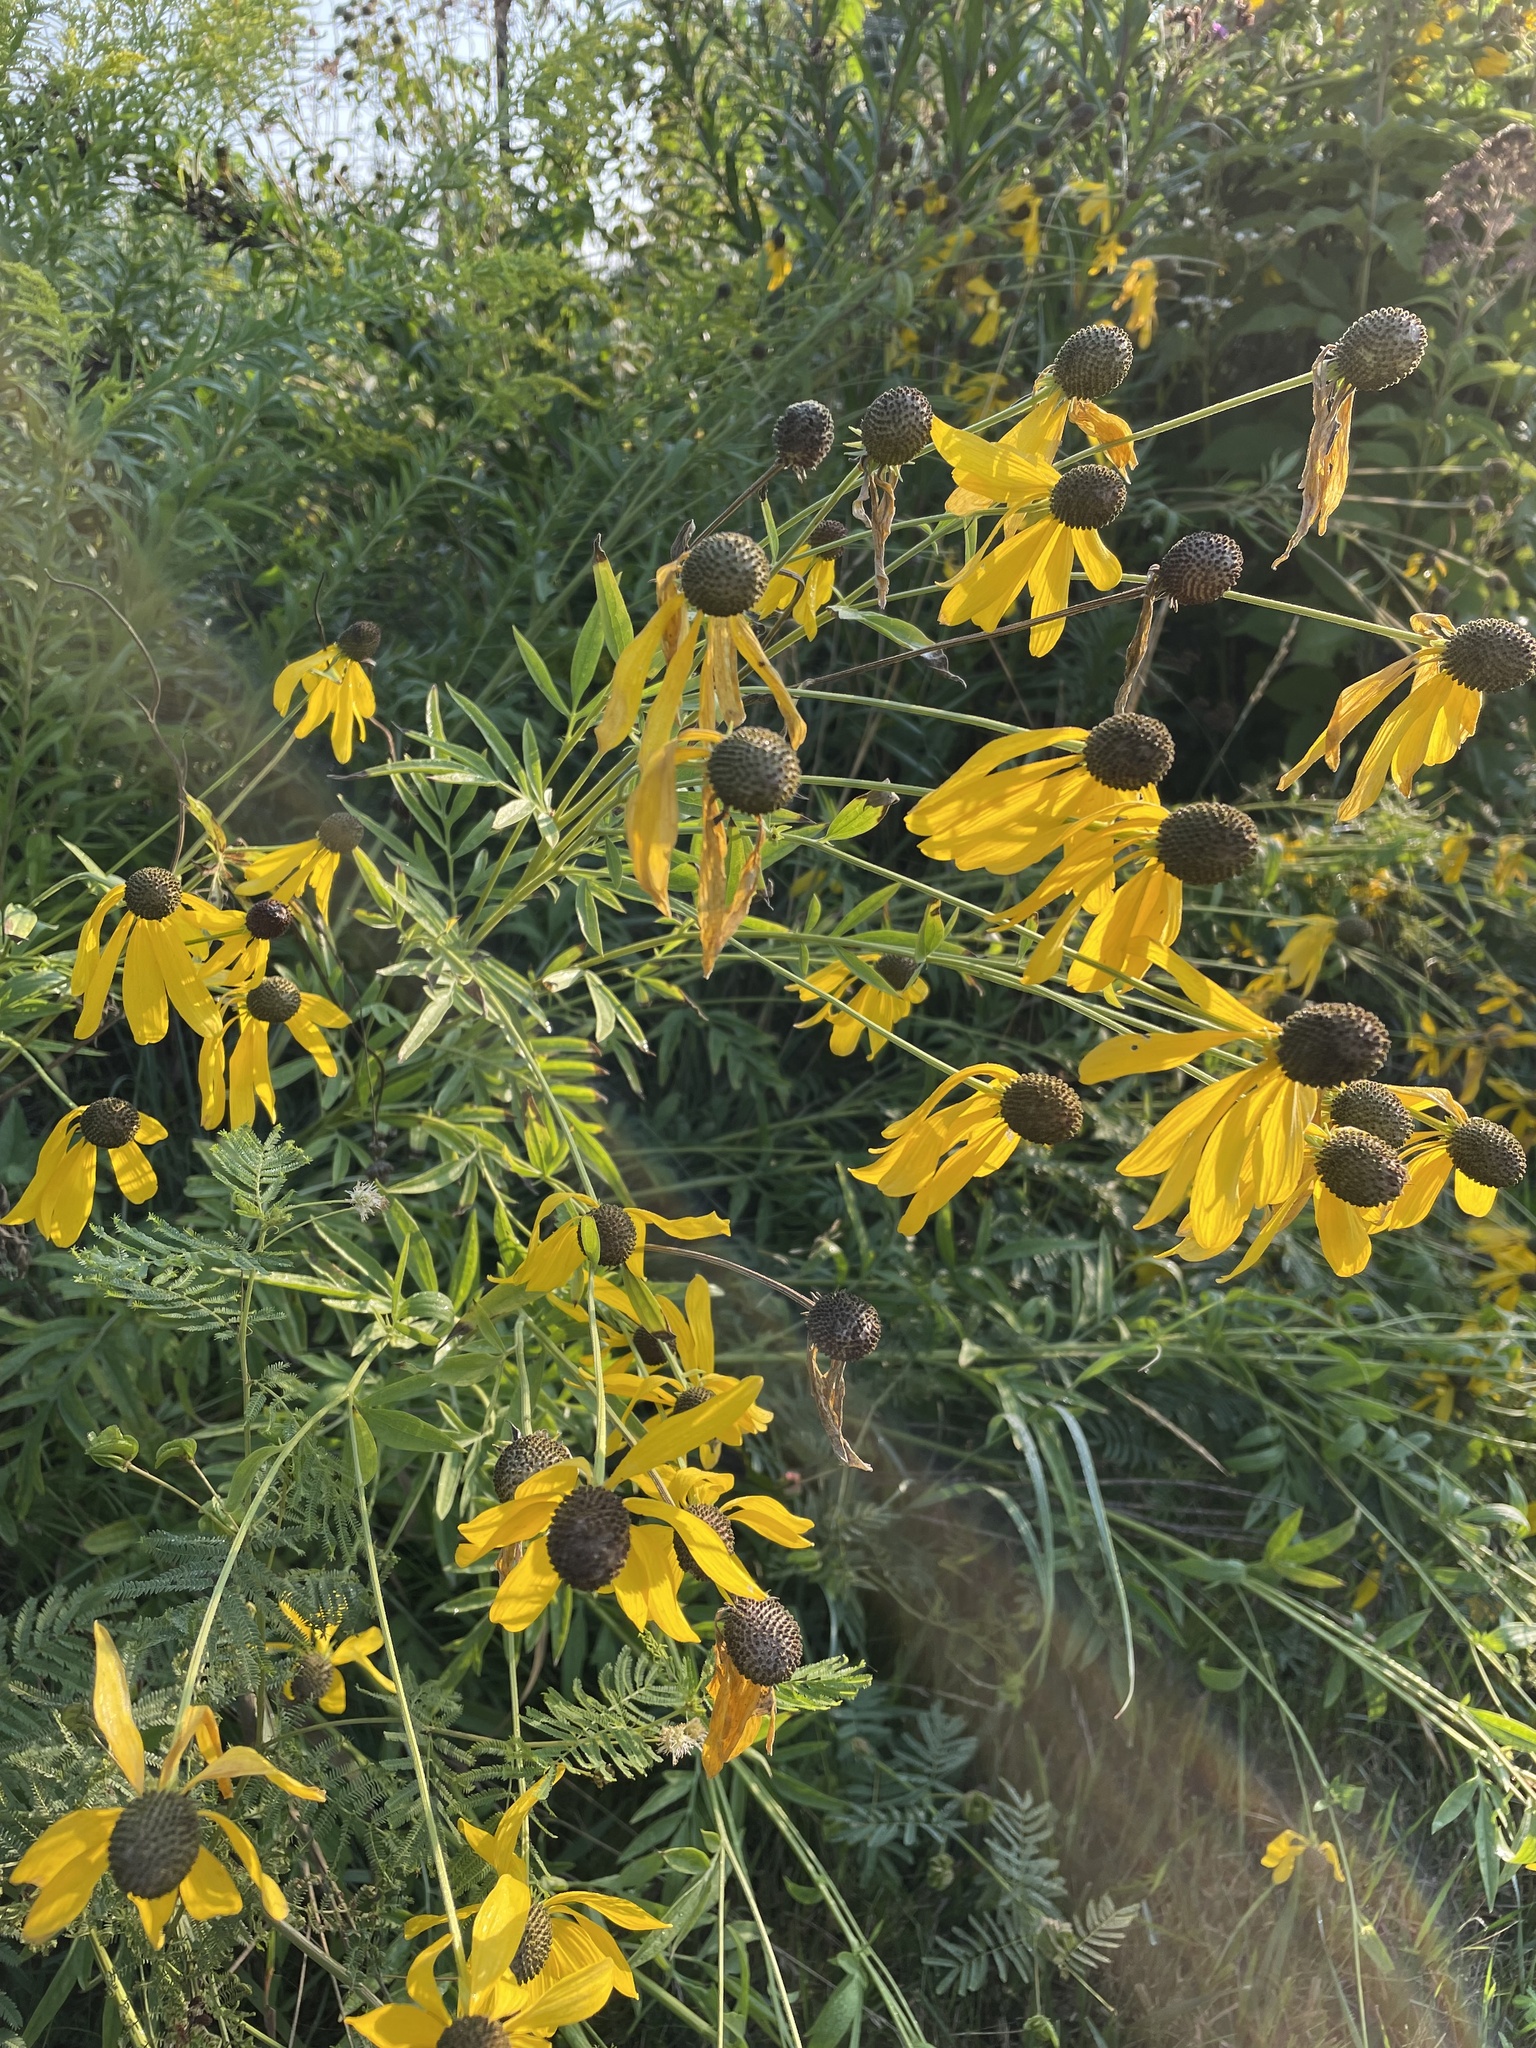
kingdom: Plantae
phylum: Tracheophyta
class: Magnoliopsida
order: Asterales
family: Asteraceae
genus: Ratibida
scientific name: Ratibida pinnata
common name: Drooping prairie-coneflower
